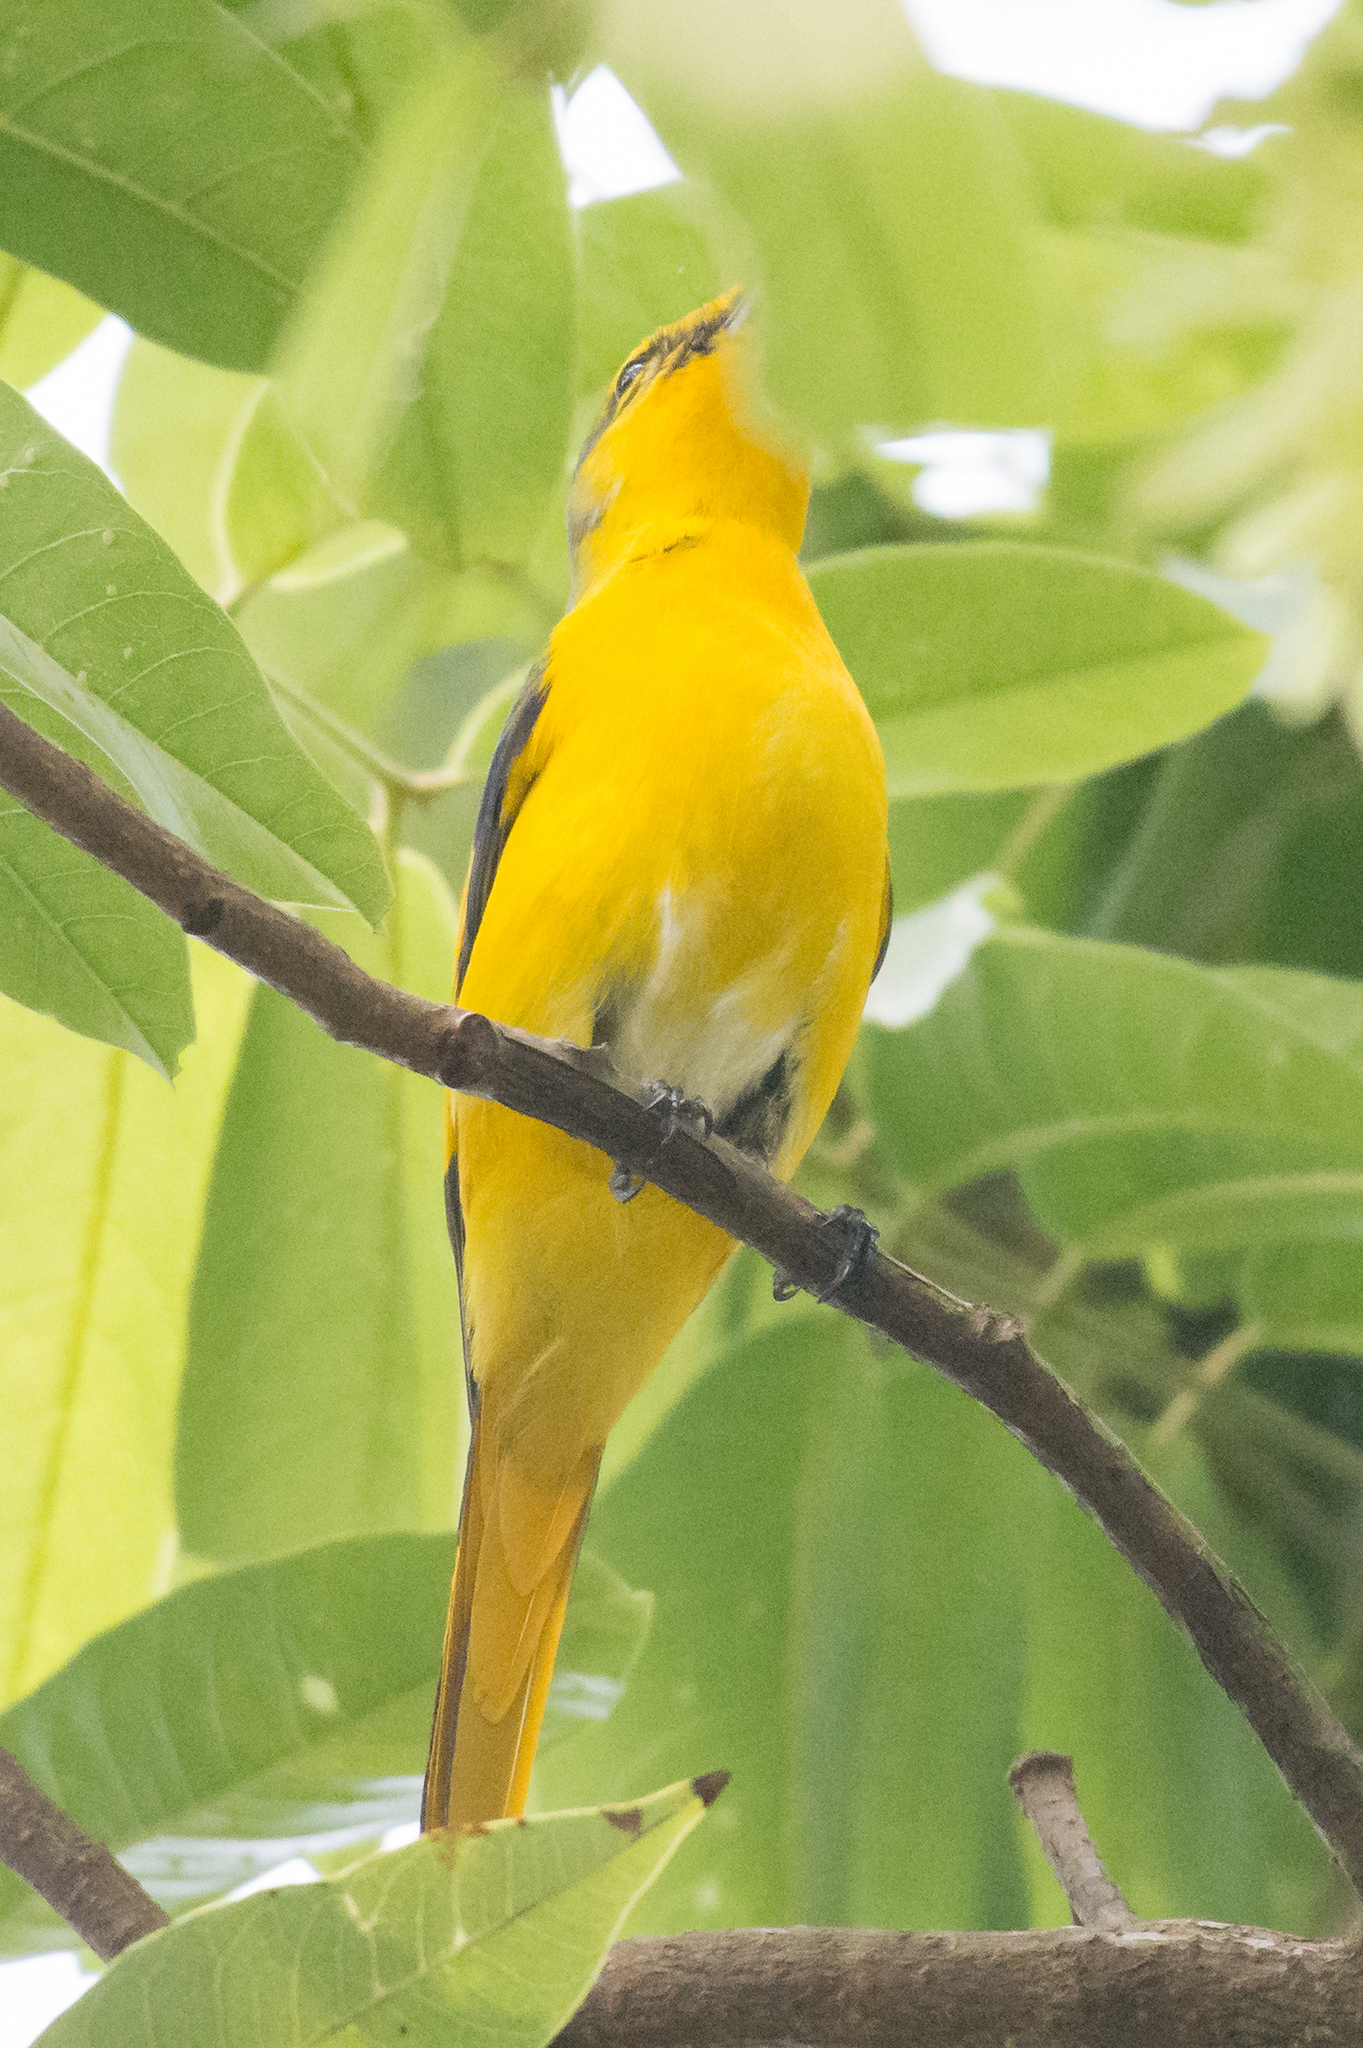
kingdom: Animalia
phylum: Chordata
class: Aves
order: Passeriformes
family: Campephagidae
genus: Pericrocotus
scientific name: Pericrocotus speciosus
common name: Scarlet minivet
